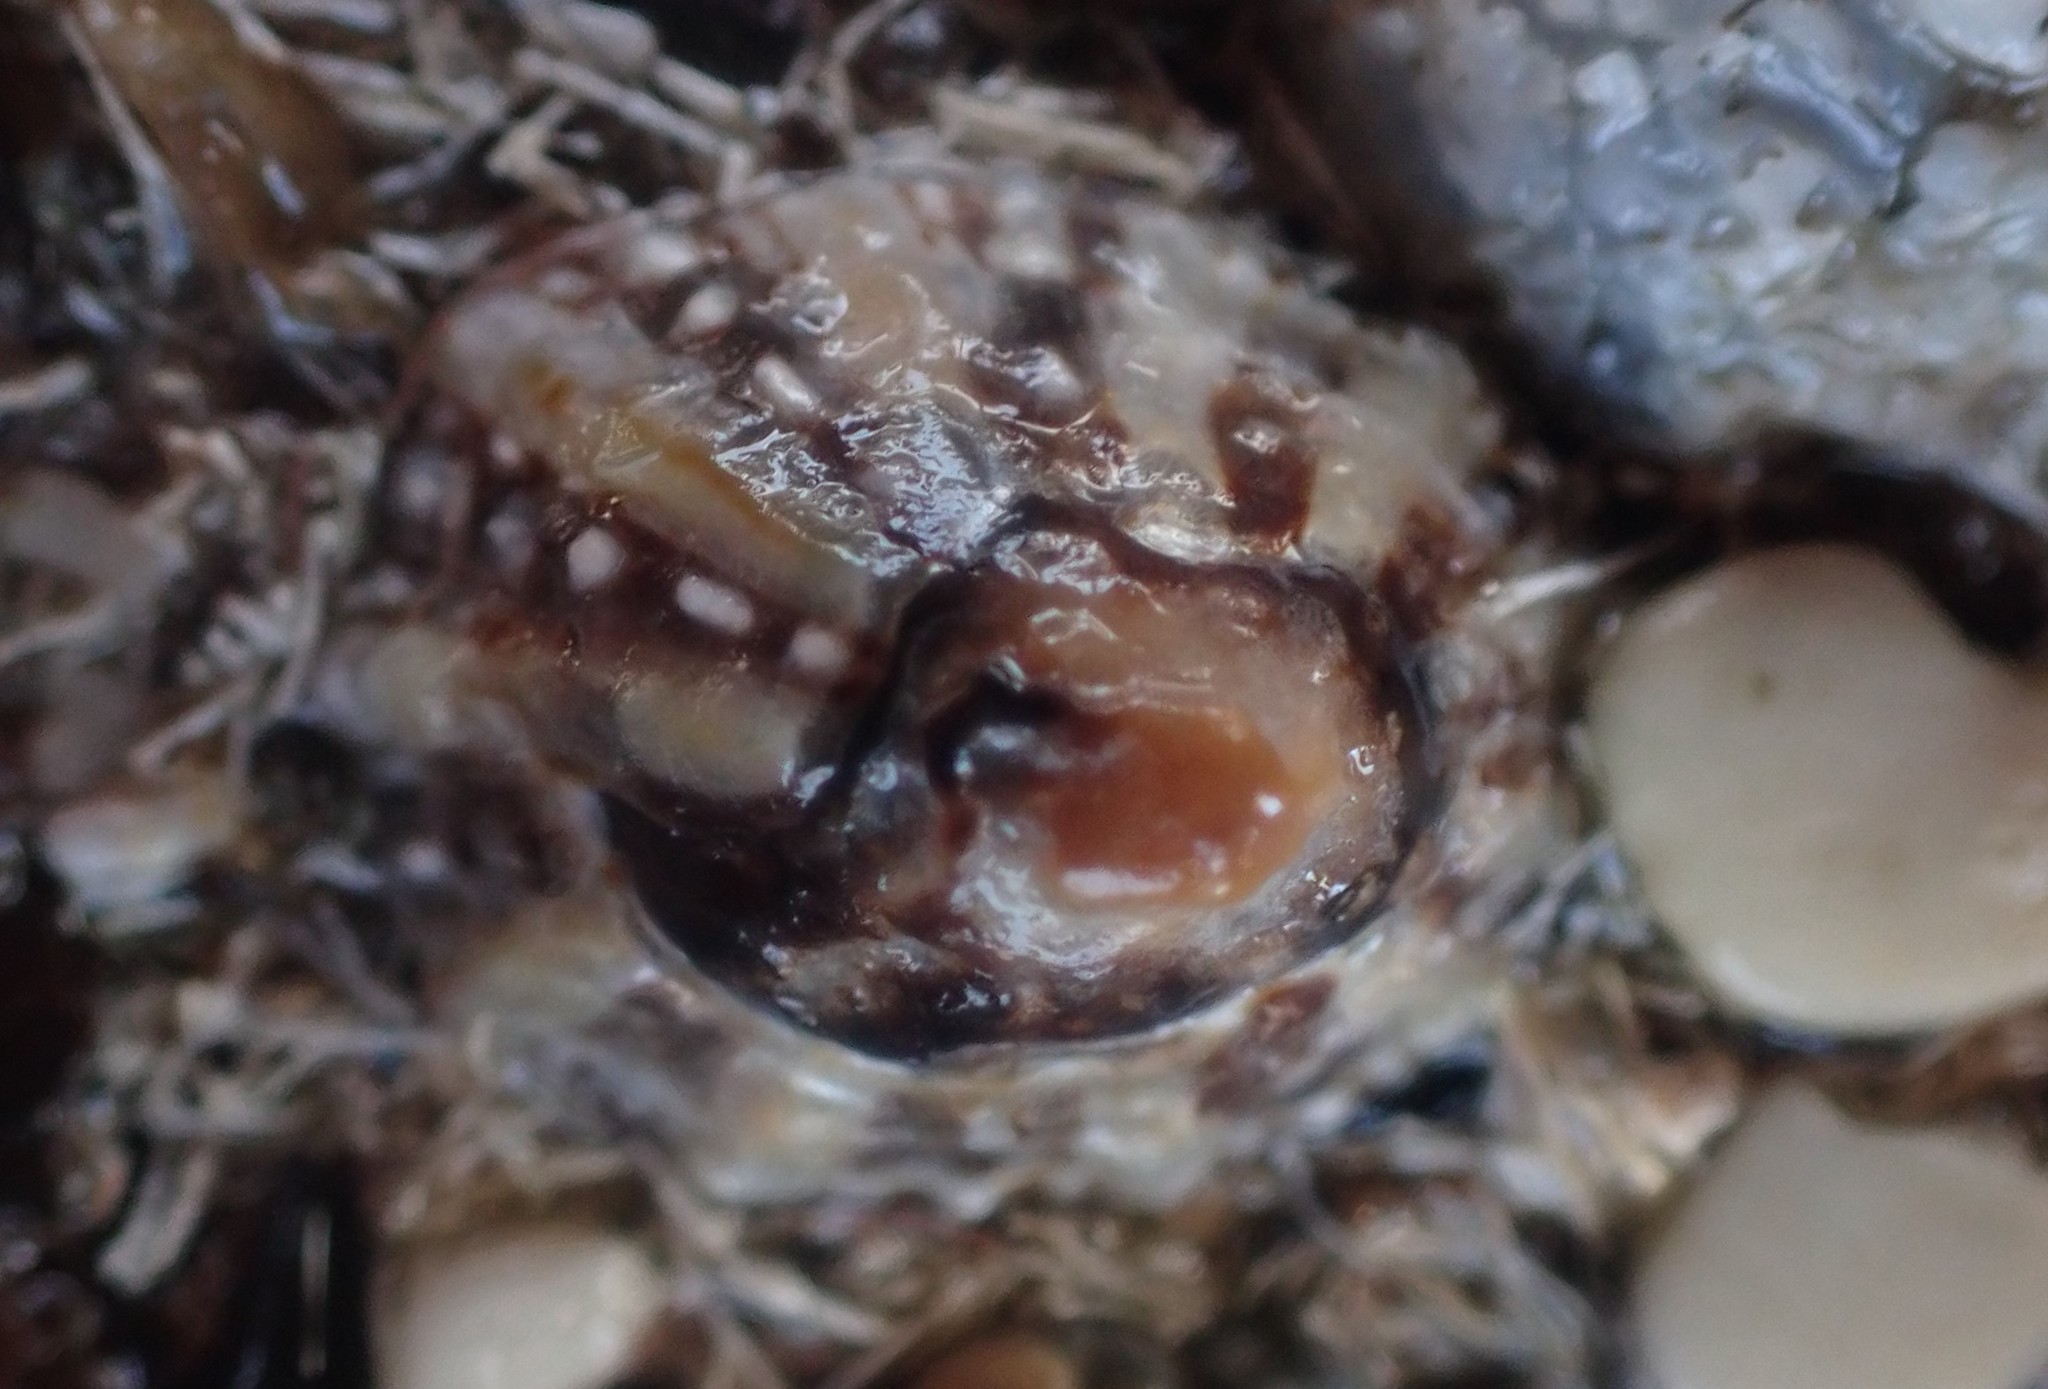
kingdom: Animalia
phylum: Mollusca
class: Gastropoda
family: Nacellidae
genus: Cellana
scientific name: Cellana ornata
